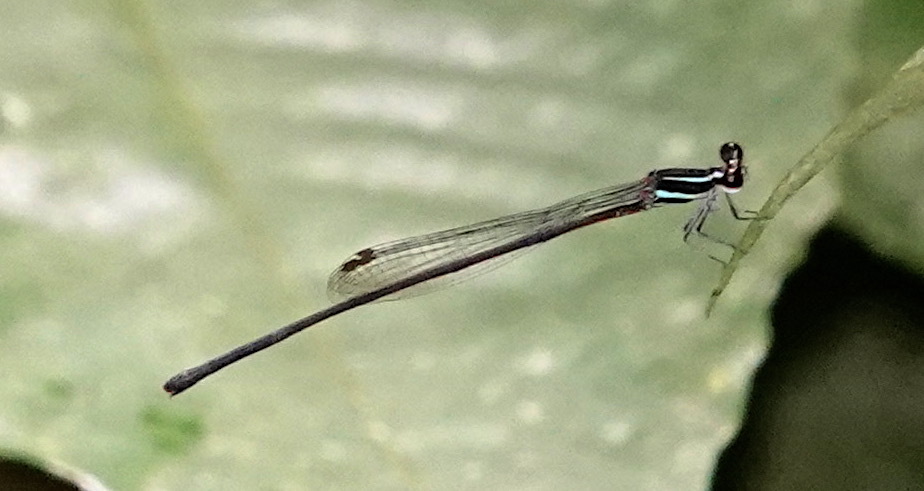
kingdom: Animalia
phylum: Arthropoda
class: Insecta
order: Odonata
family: Platycnemididae
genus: Prodasineura
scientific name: Prodasineura notostigma
